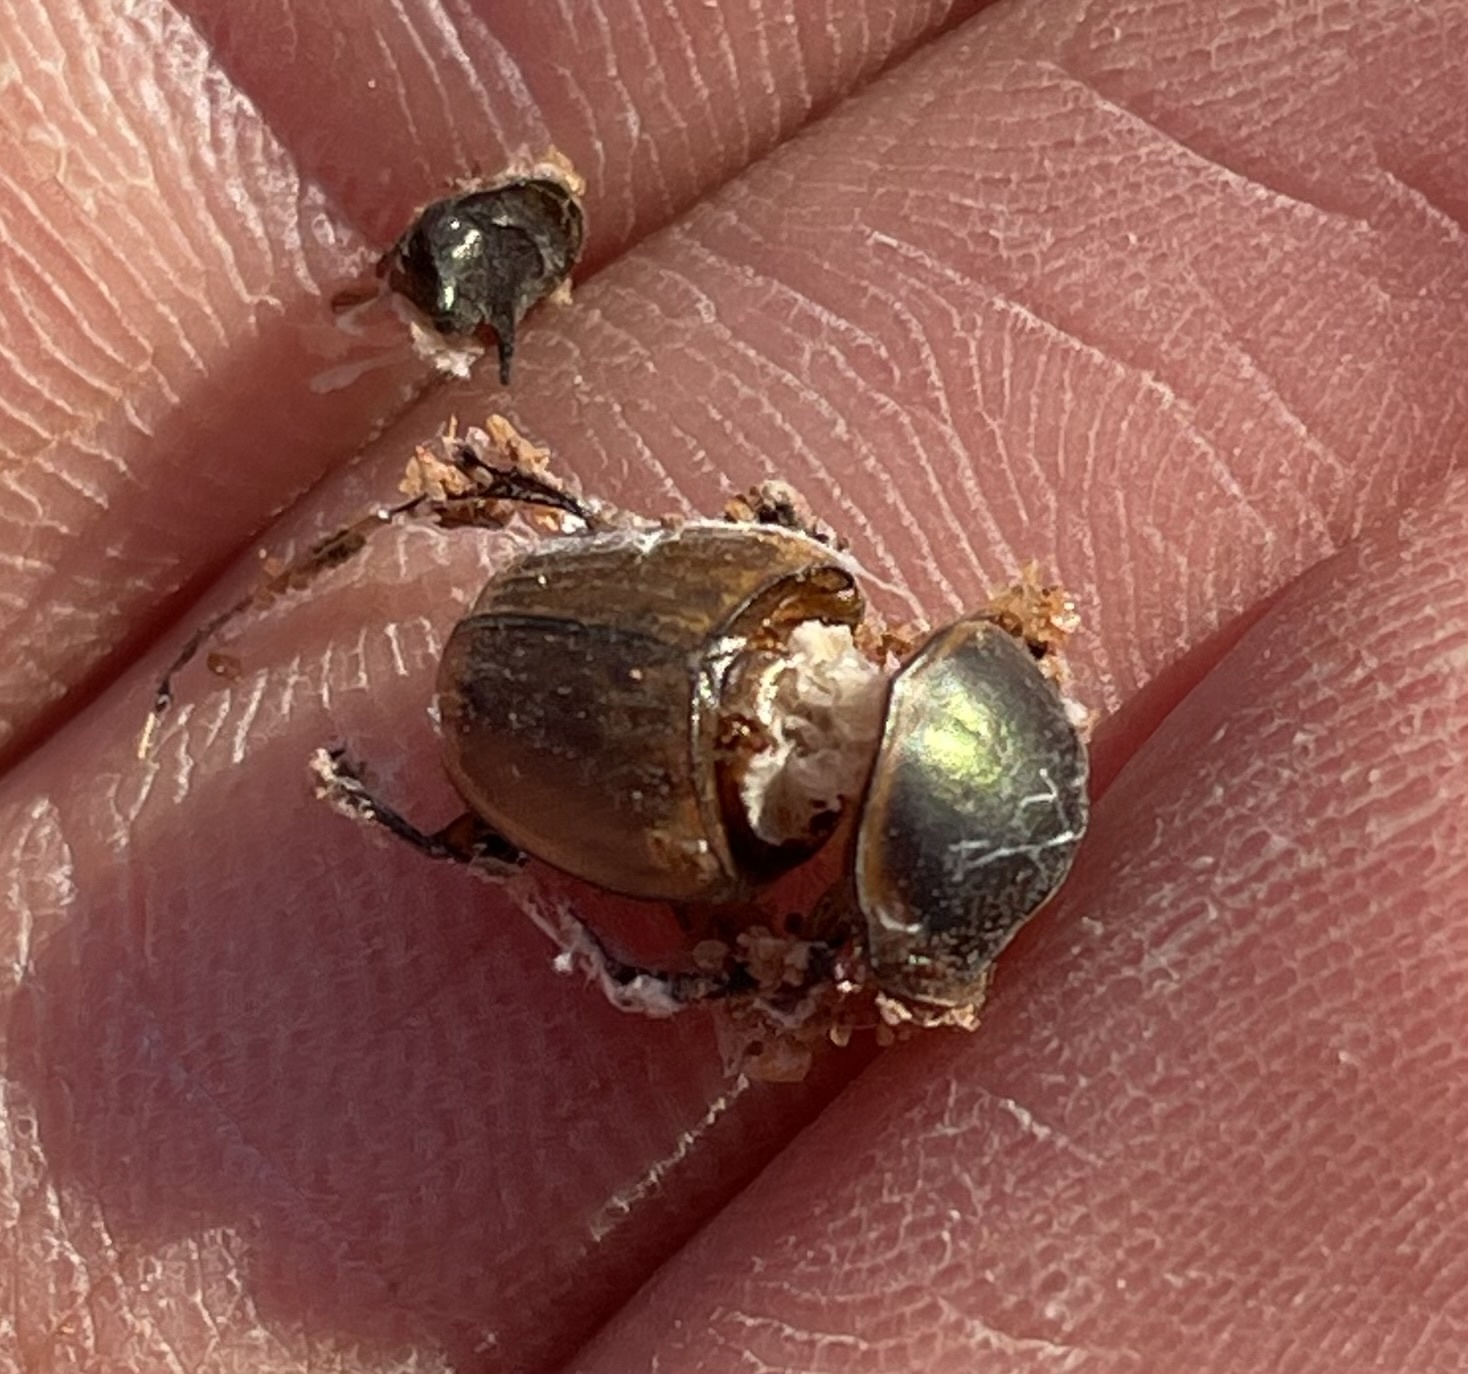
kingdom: Animalia
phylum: Arthropoda
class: Insecta
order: Coleoptera
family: Scarabaeidae
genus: Digitonthophagus
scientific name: Digitonthophagus gazella
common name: Brown dung beetle
